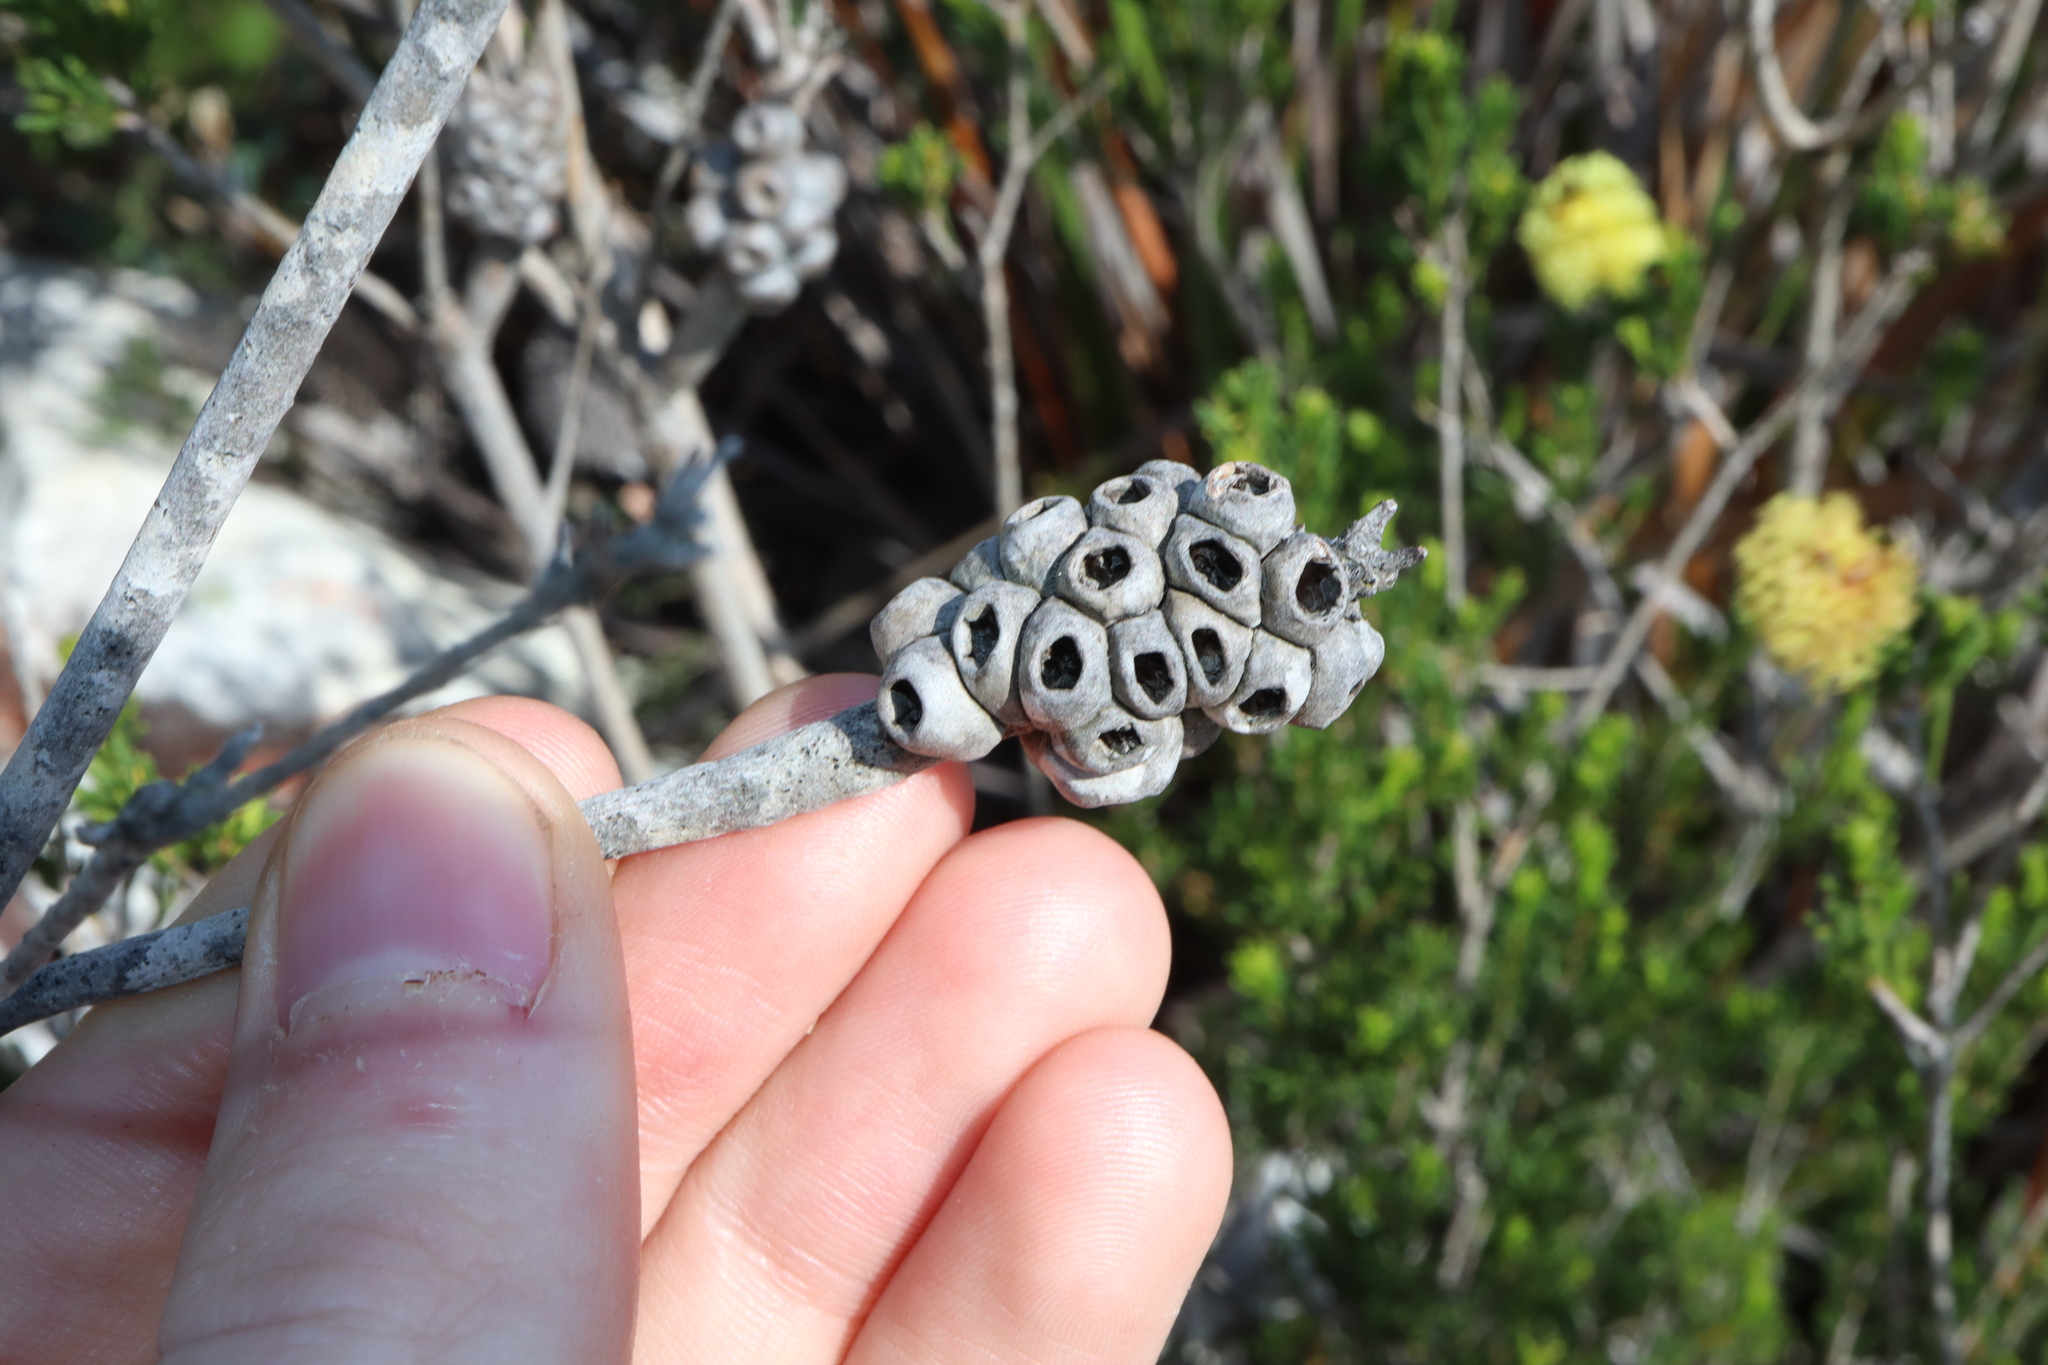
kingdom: Plantae
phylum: Tracheophyta
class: Magnoliopsida
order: Myrtales
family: Myrtaceae
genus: Melaleuca
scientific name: Melaleuca lutea
